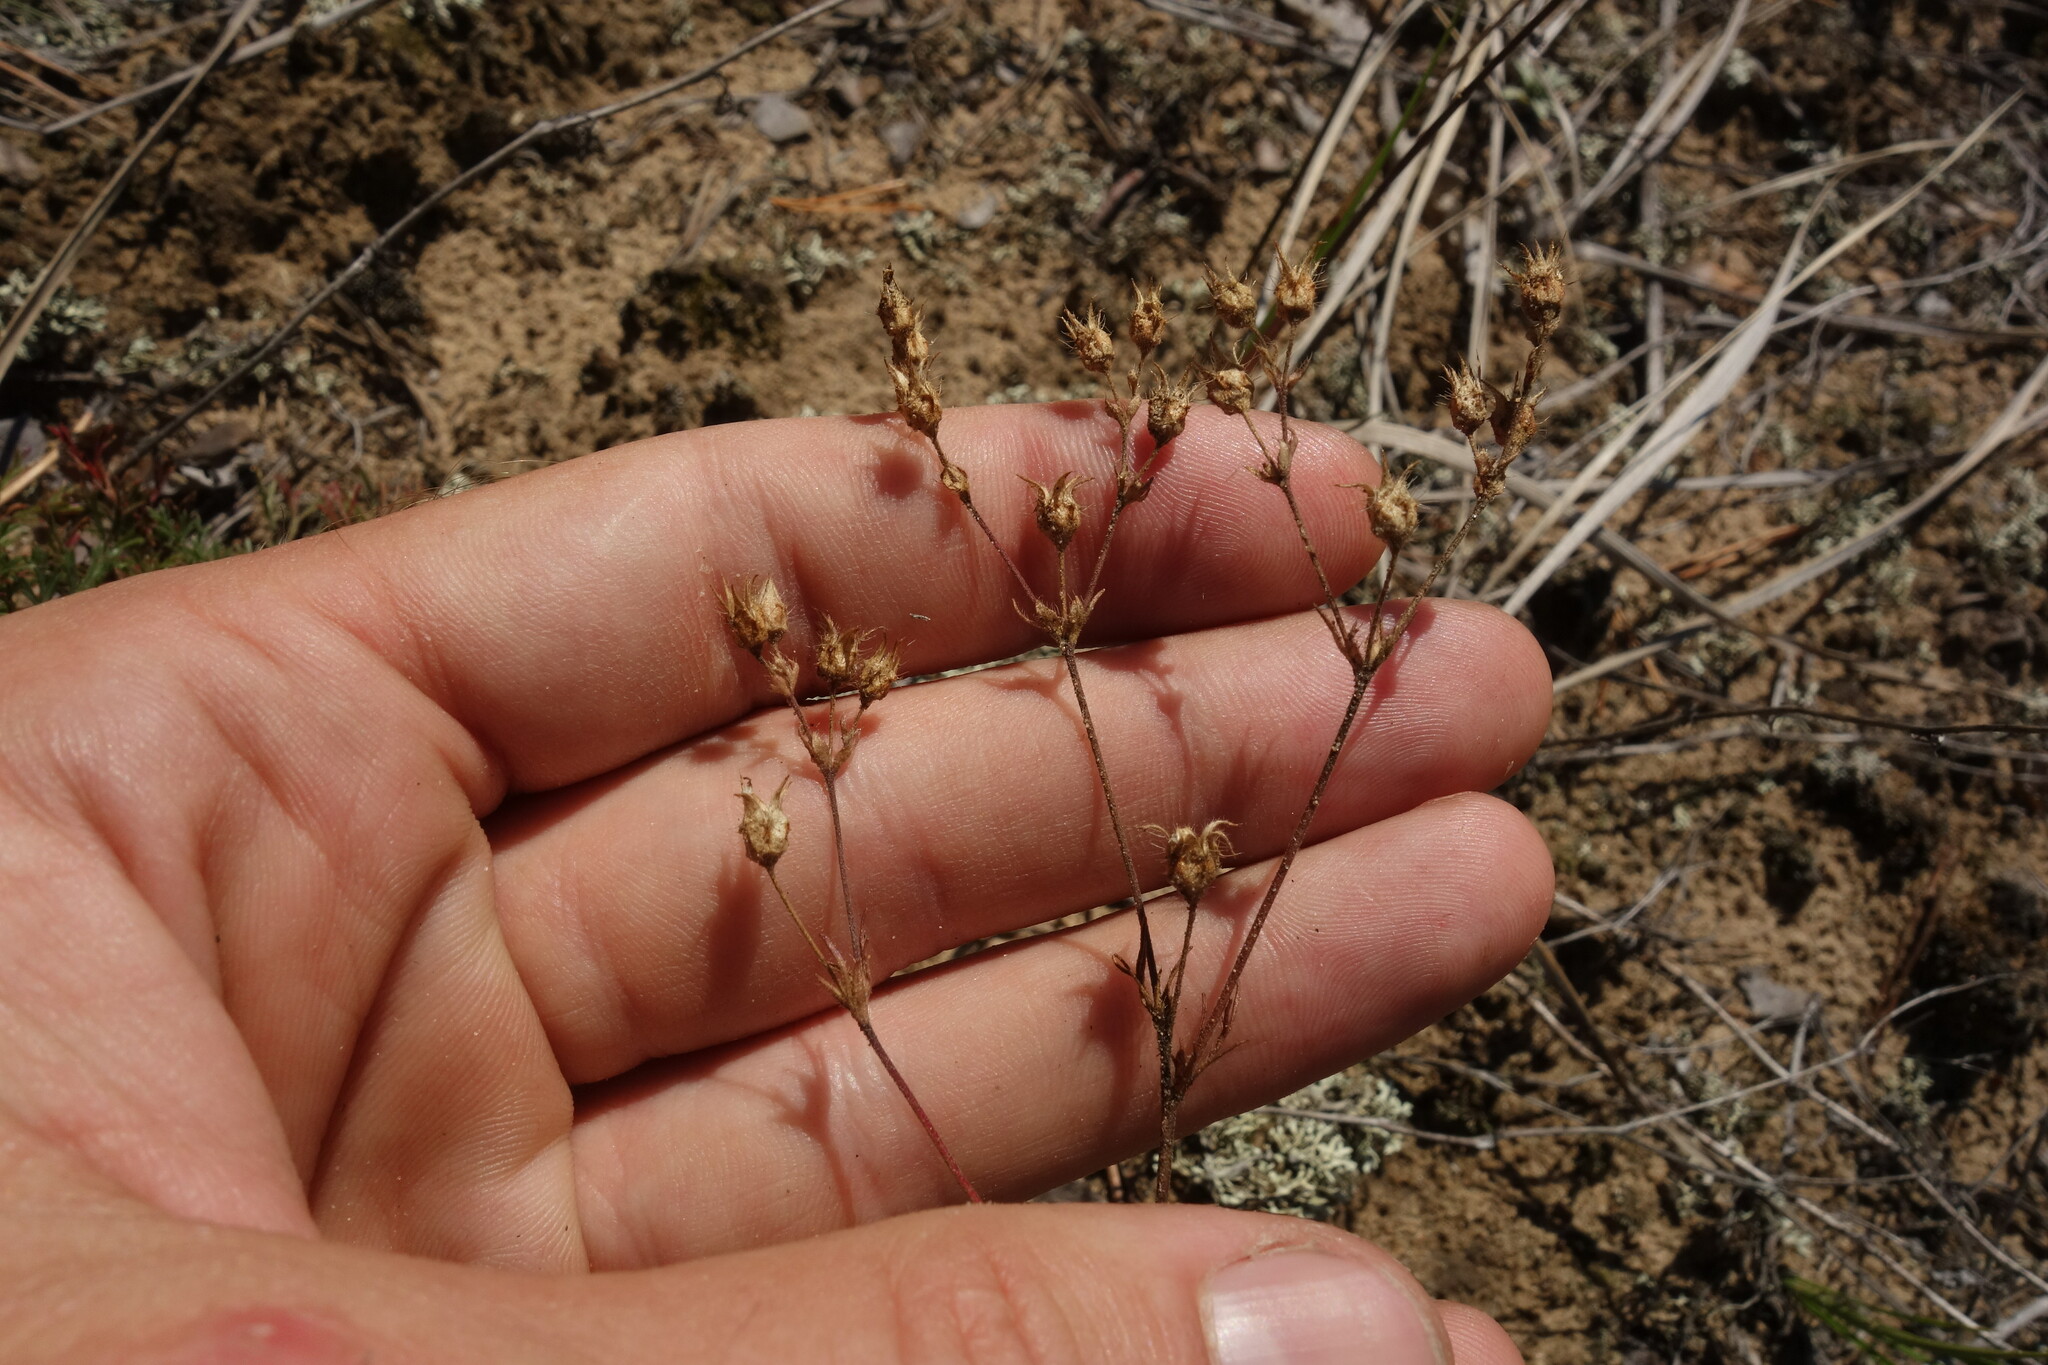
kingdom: Plantae
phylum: Tracheophyta
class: Magnoliopsida
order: Rosales
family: Rosaceae
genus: Chamaerhodos
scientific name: Chamaerhodos grandiflora
